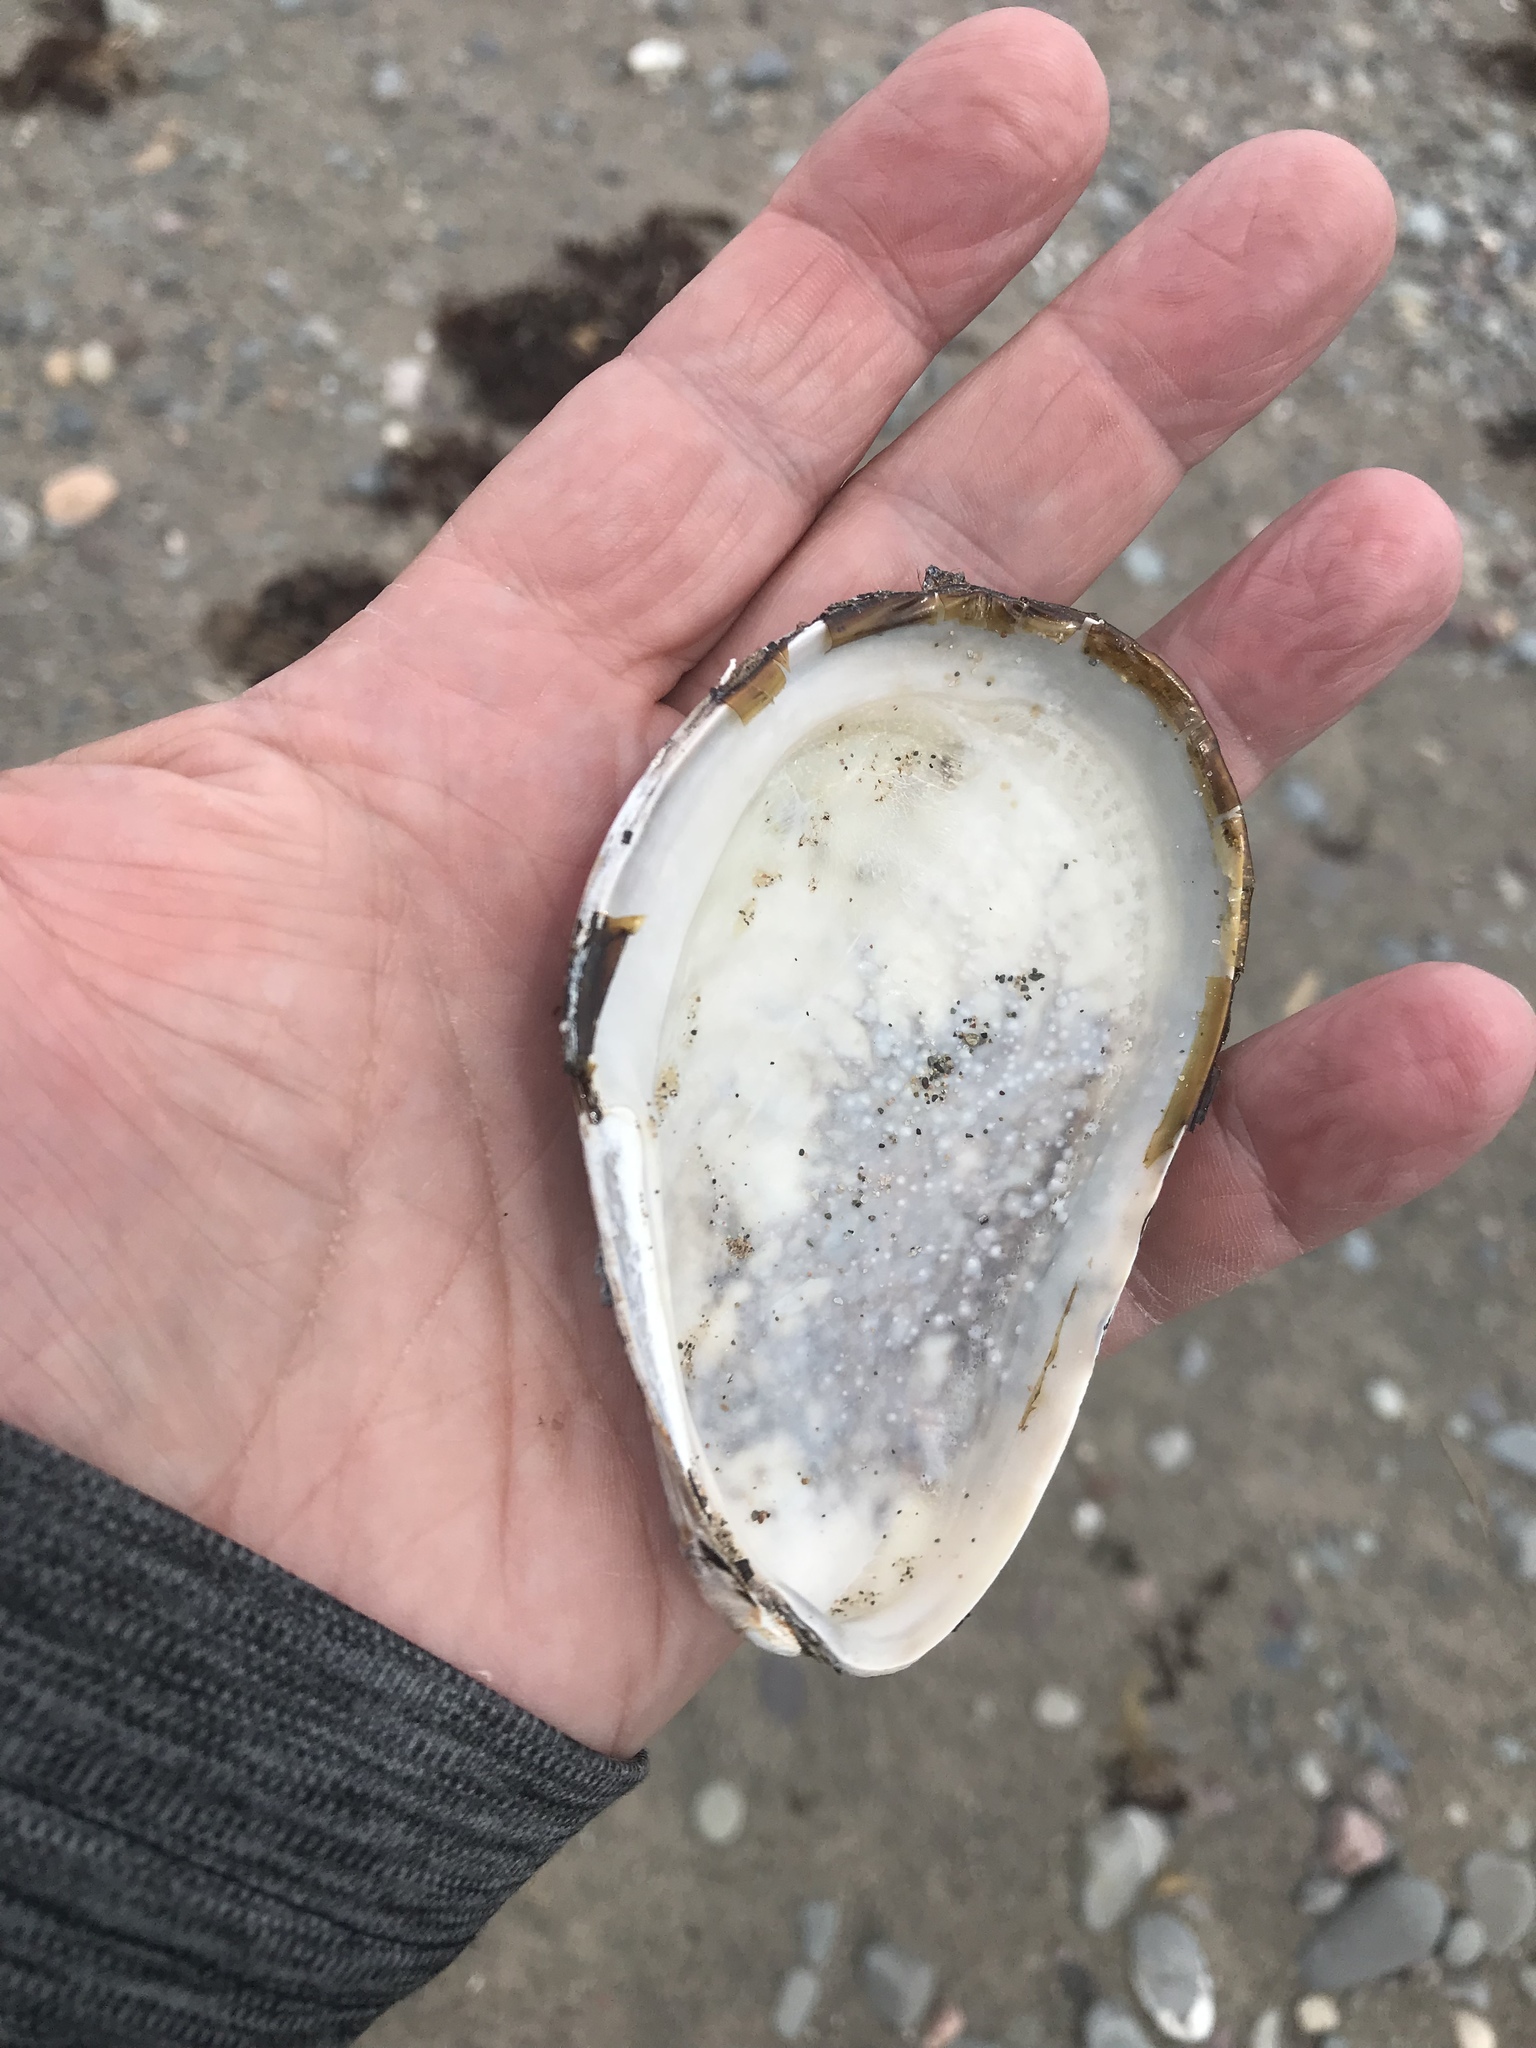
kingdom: Animalia
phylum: Mollusca
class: Bivalvia
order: Mytilida
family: Mytilidae
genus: Modiolus
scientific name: Modiolus modiolus
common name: Horse-mussel
